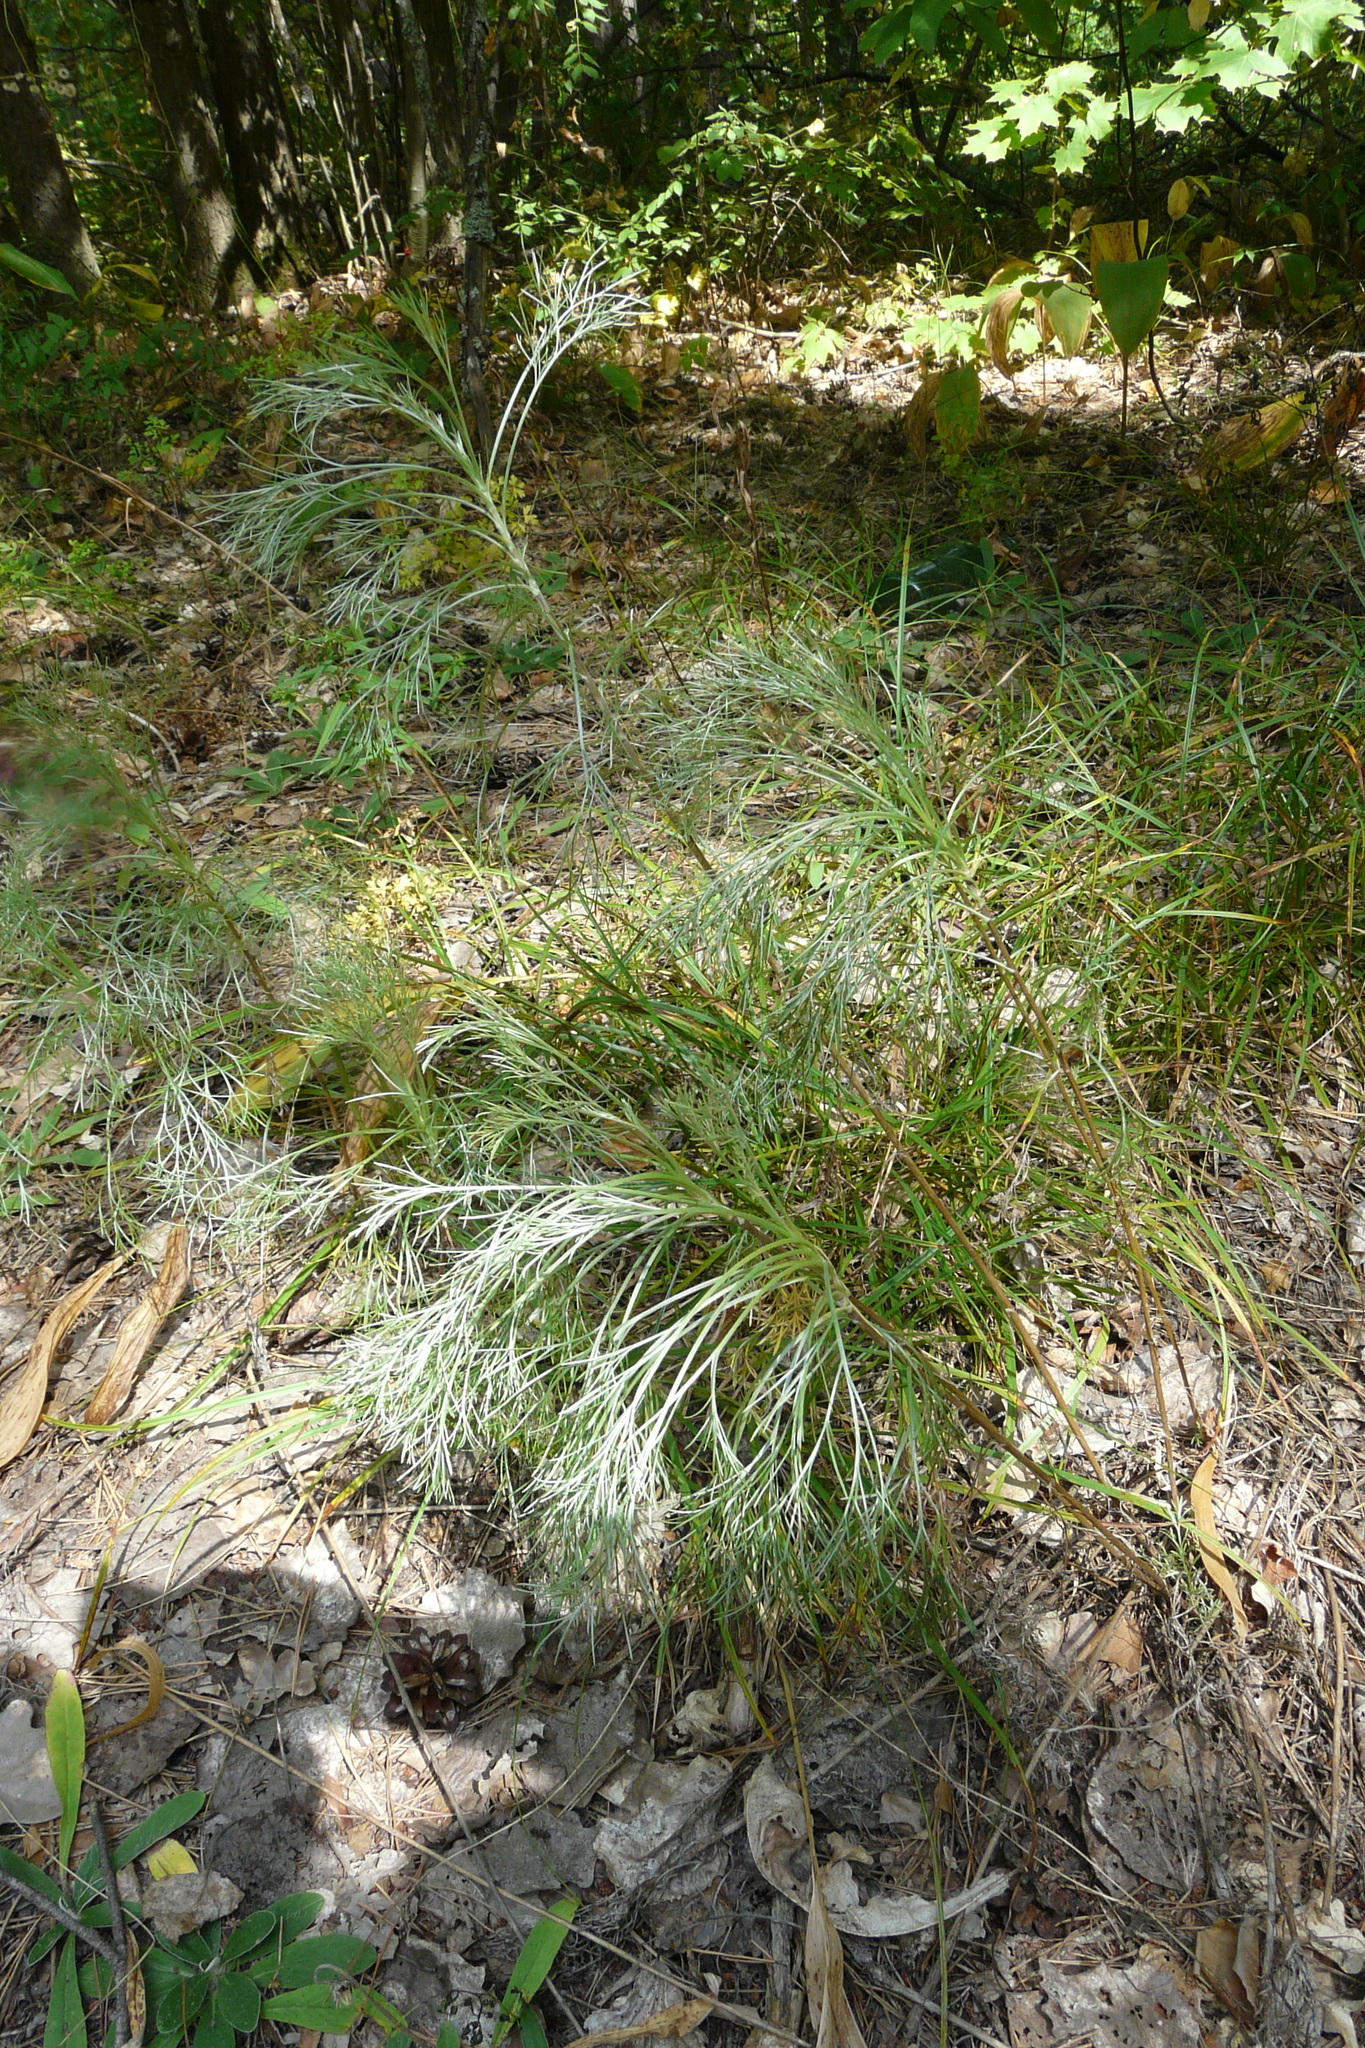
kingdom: Plantae
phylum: Tracheophyta
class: Magnoliopsida
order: Asterales
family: Asteraceae
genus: Artemisia
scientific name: Artemisia campestris
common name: Field wormwood
